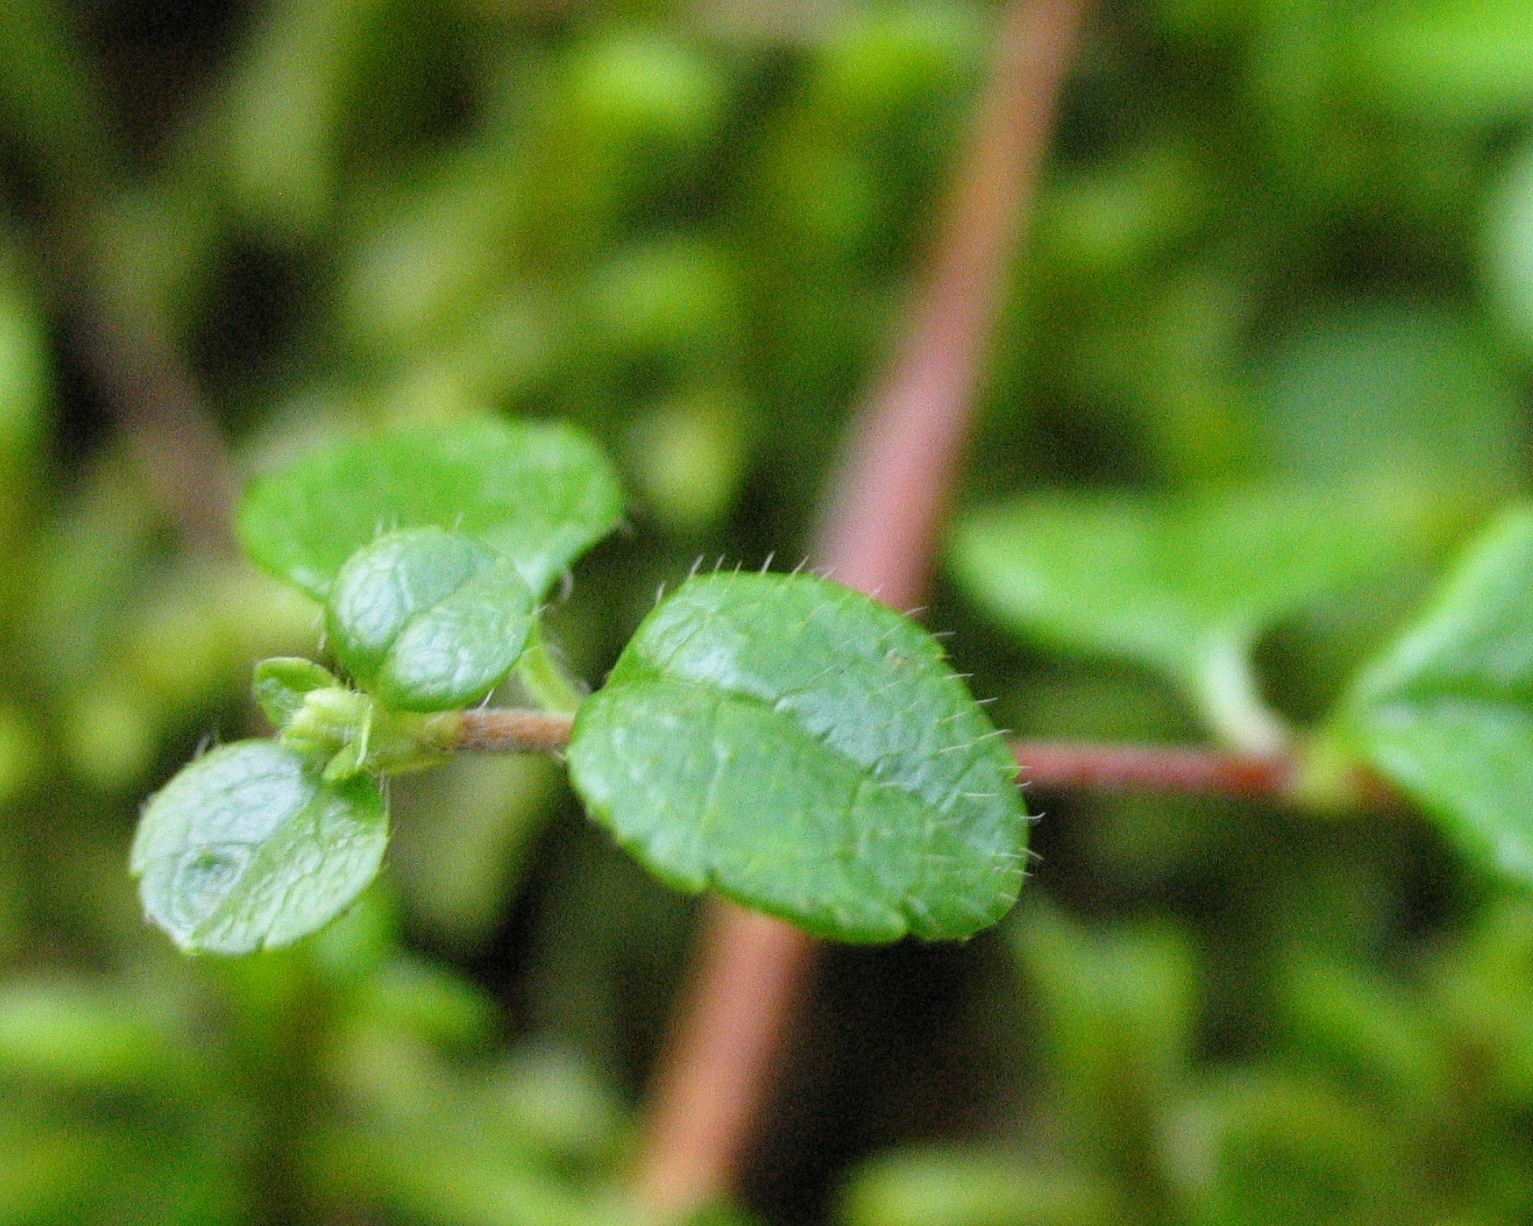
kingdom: Plantae
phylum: Tracheophyta
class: Magnoliopsida
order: Dipsacales
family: Caprifoliaceae
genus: Linnaea
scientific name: Linnaea borealis
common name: Twinflower
